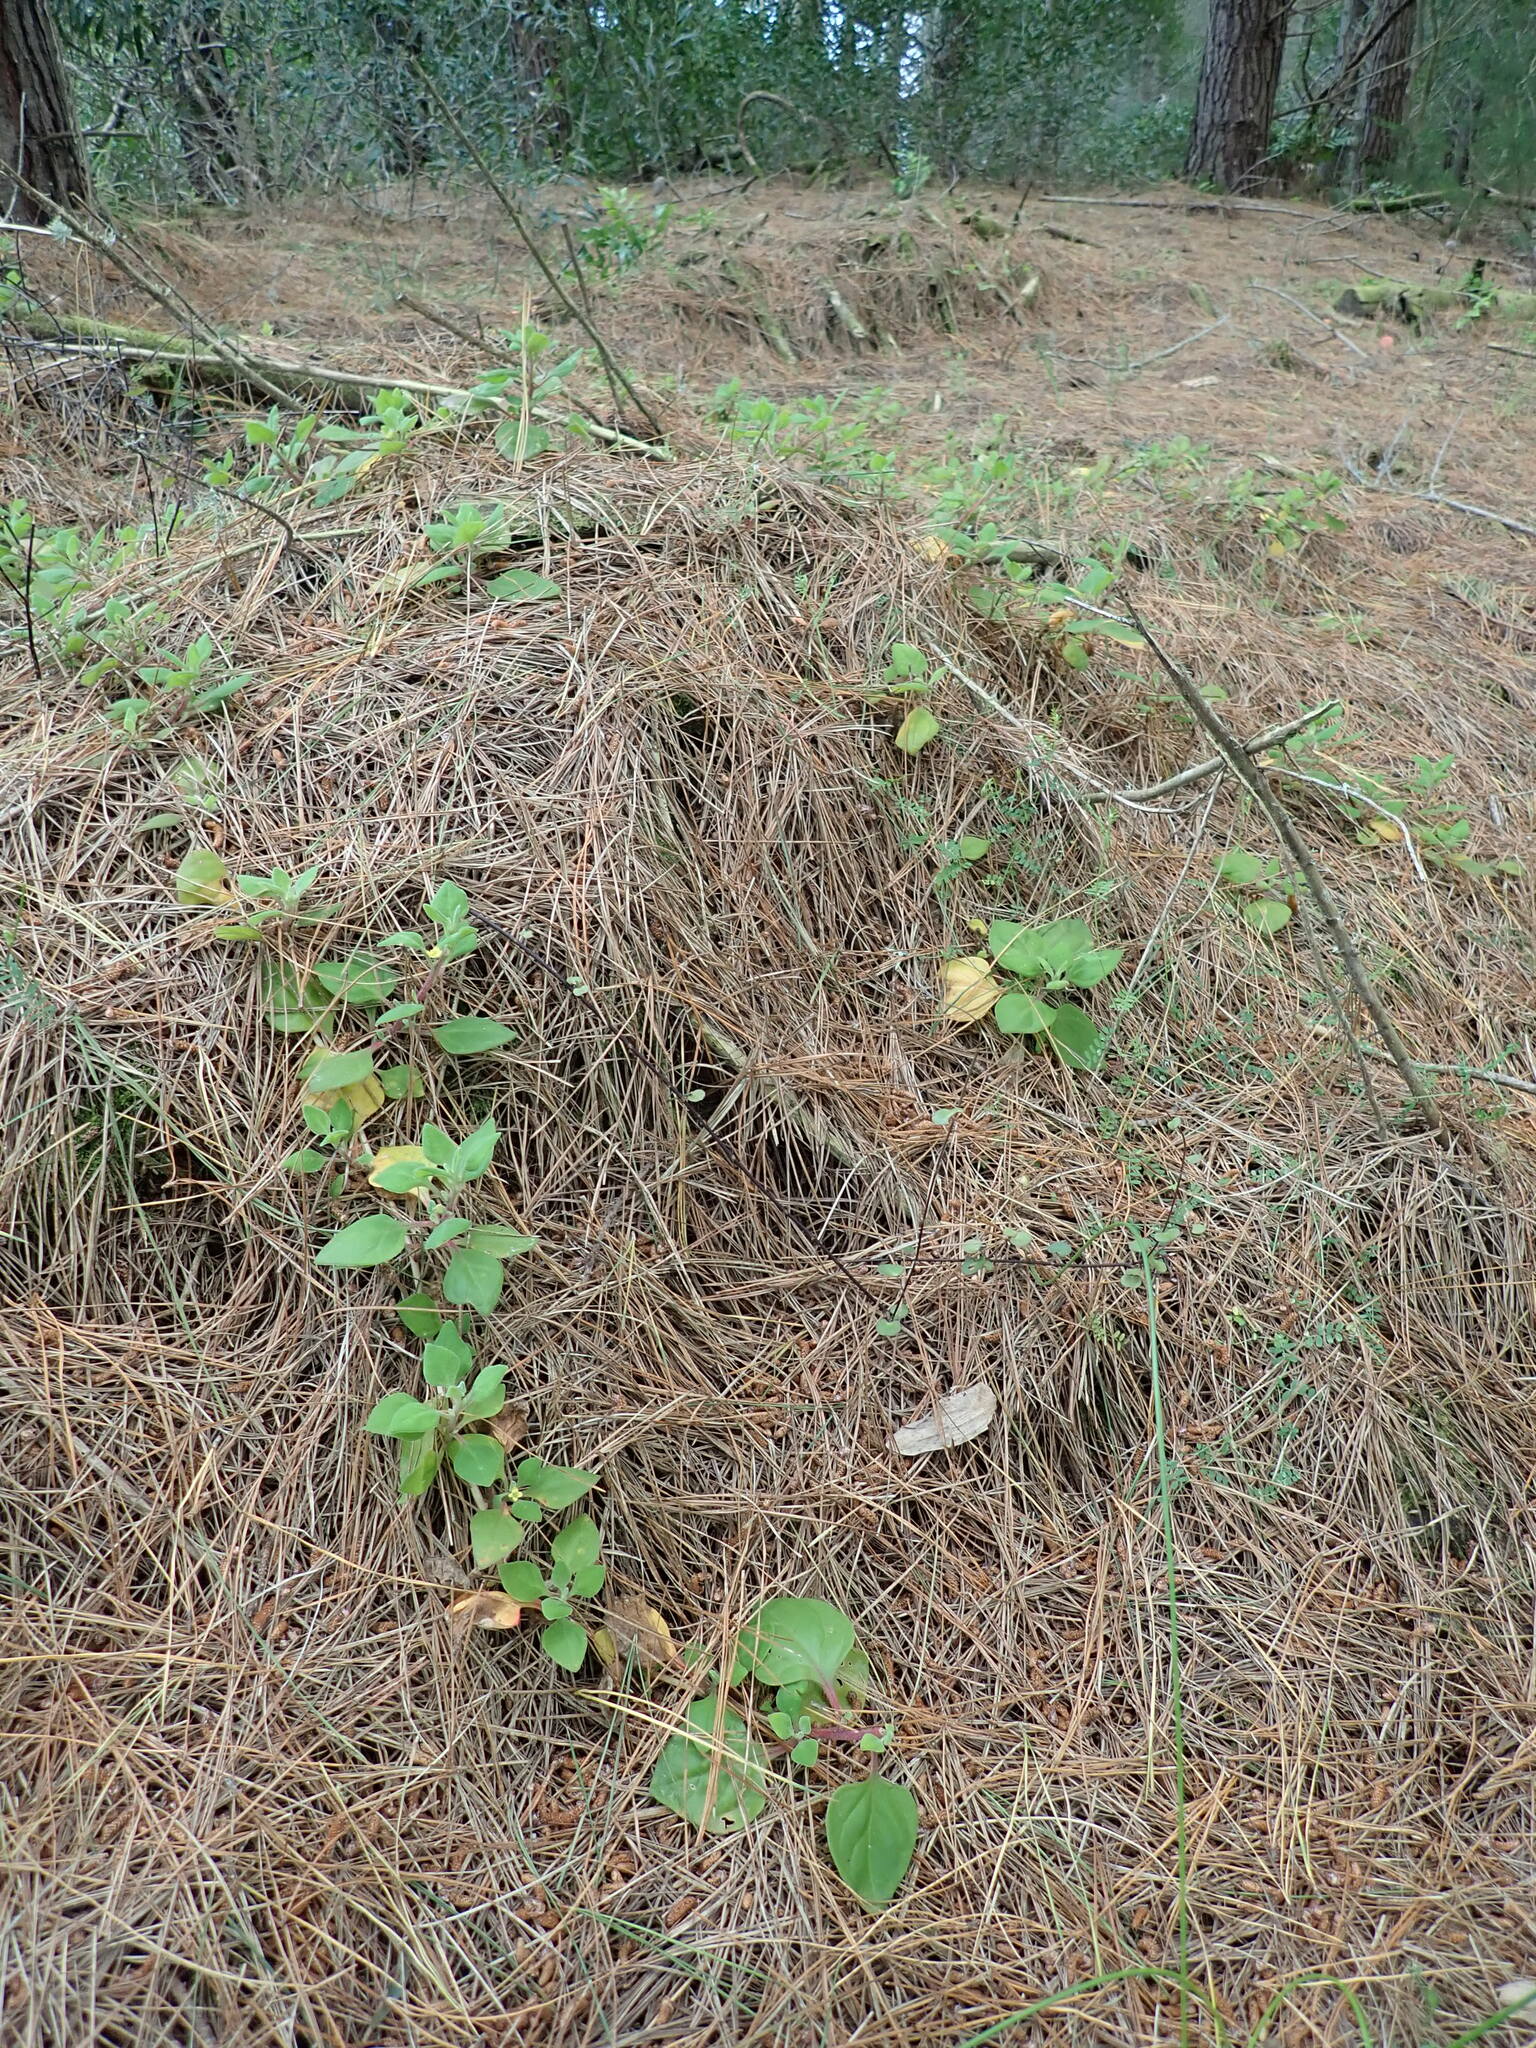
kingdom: Plantae
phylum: Tracheophyta
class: Magnoliopsida
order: Caryophyllales
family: Aizoaceae
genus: Tetragonia
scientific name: Tetragonia implexicoma
